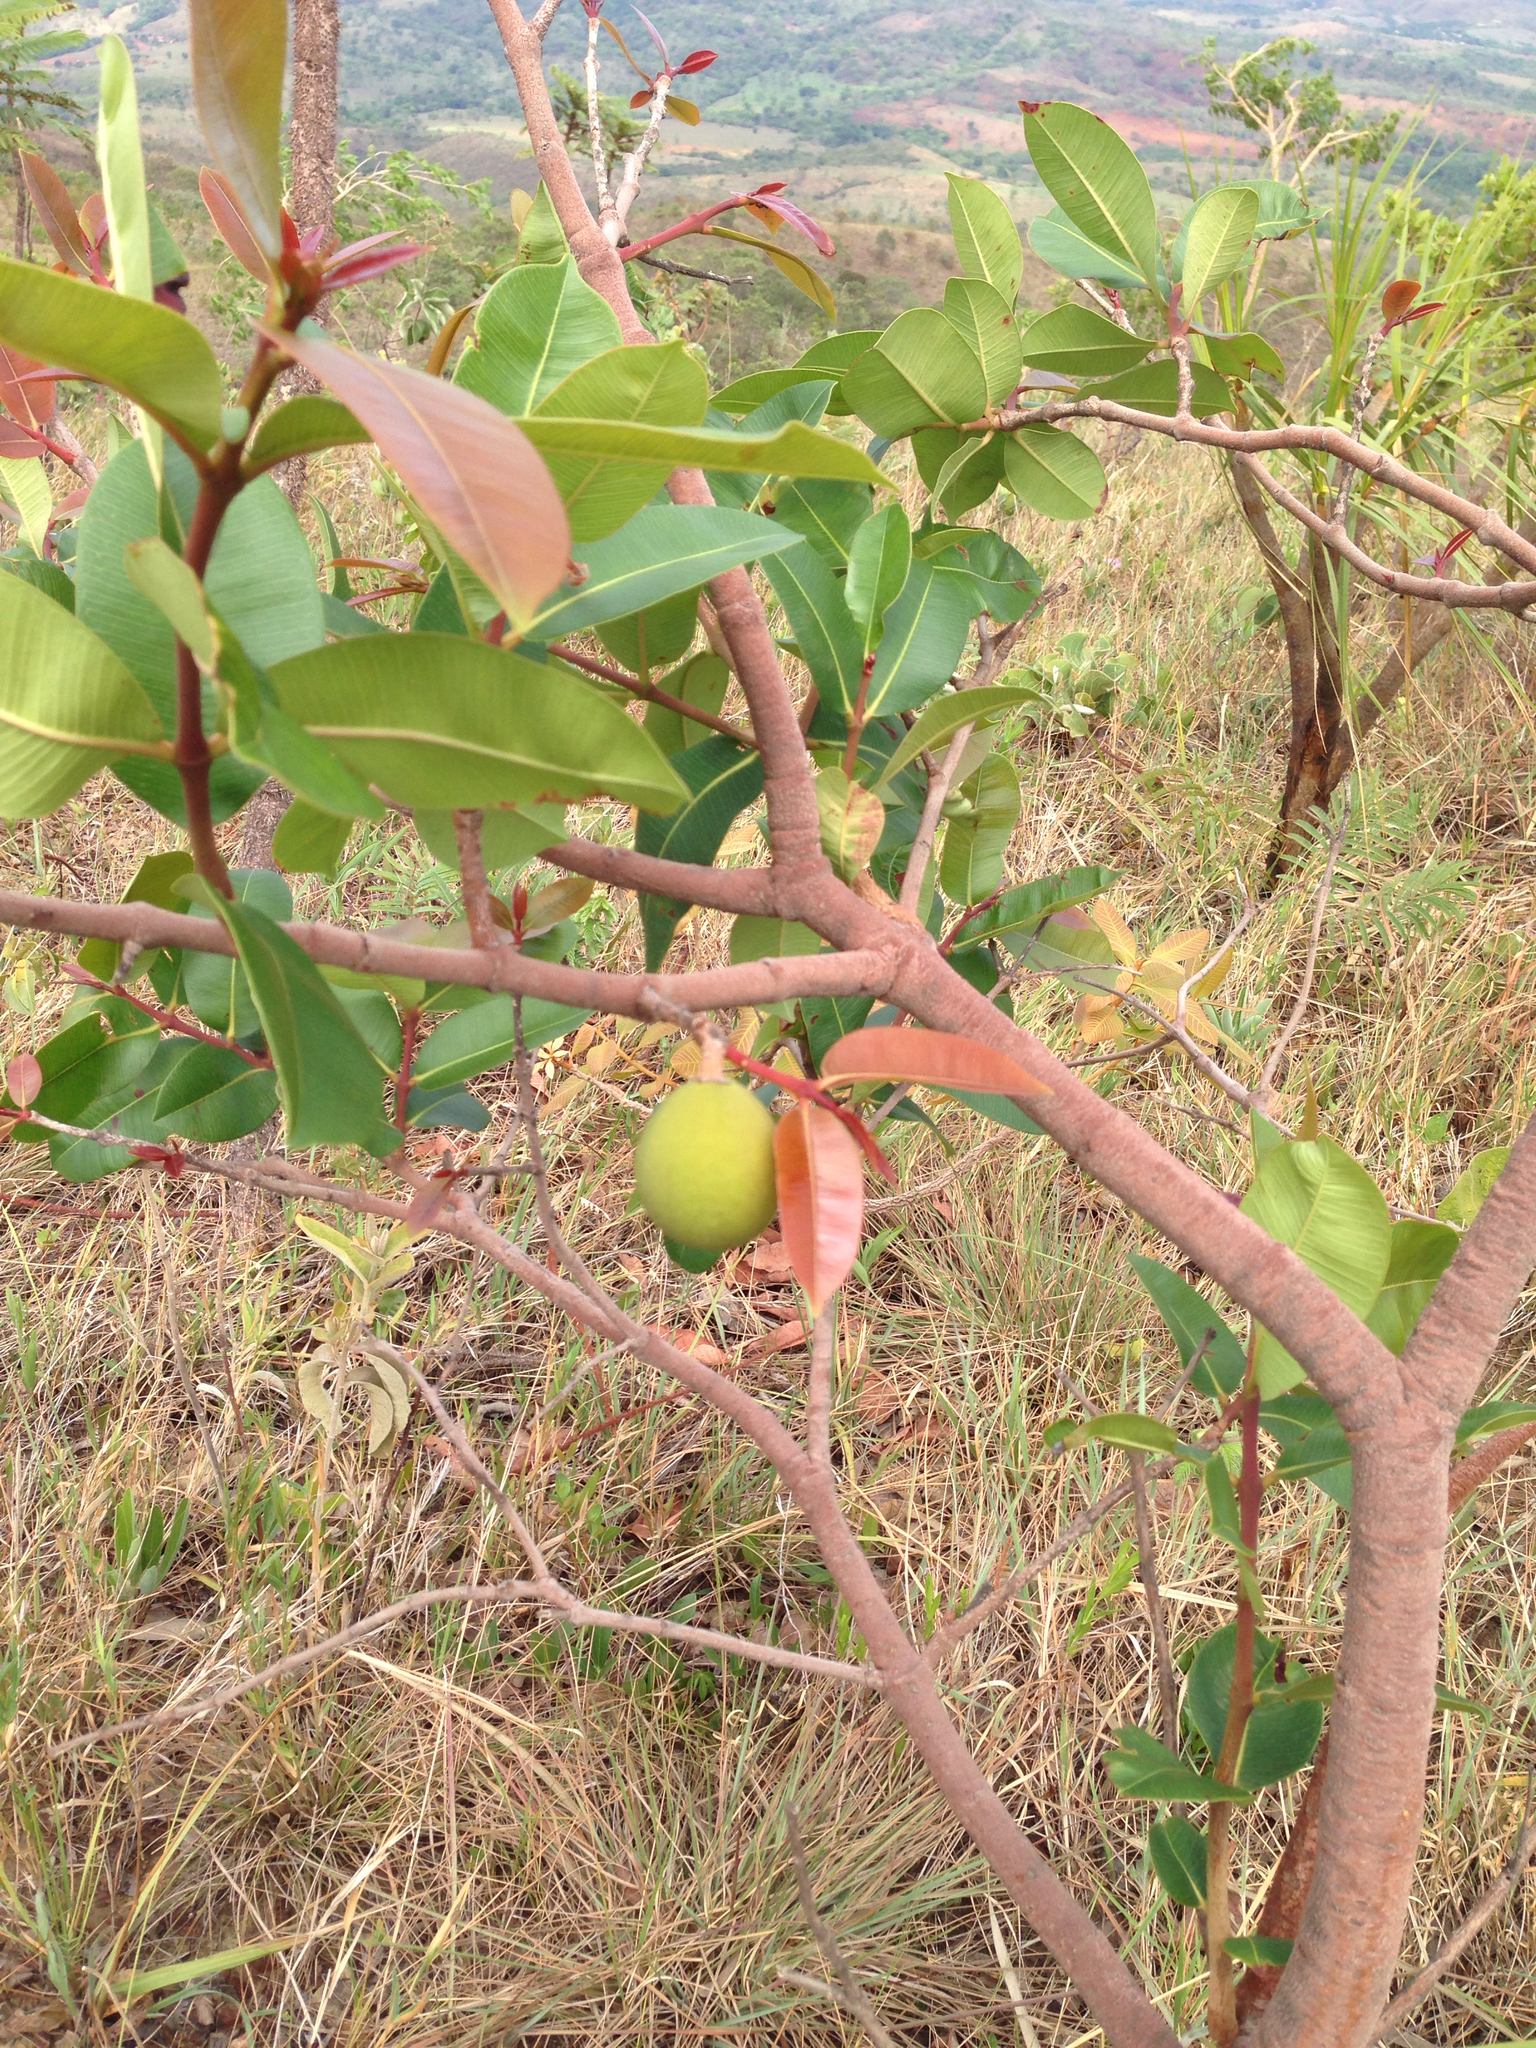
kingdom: Plantae
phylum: Tracheophyta
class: Magnoliopsida
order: Gentianales
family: Apocynaceae
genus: Hancornia
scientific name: Hancornia speciosa
